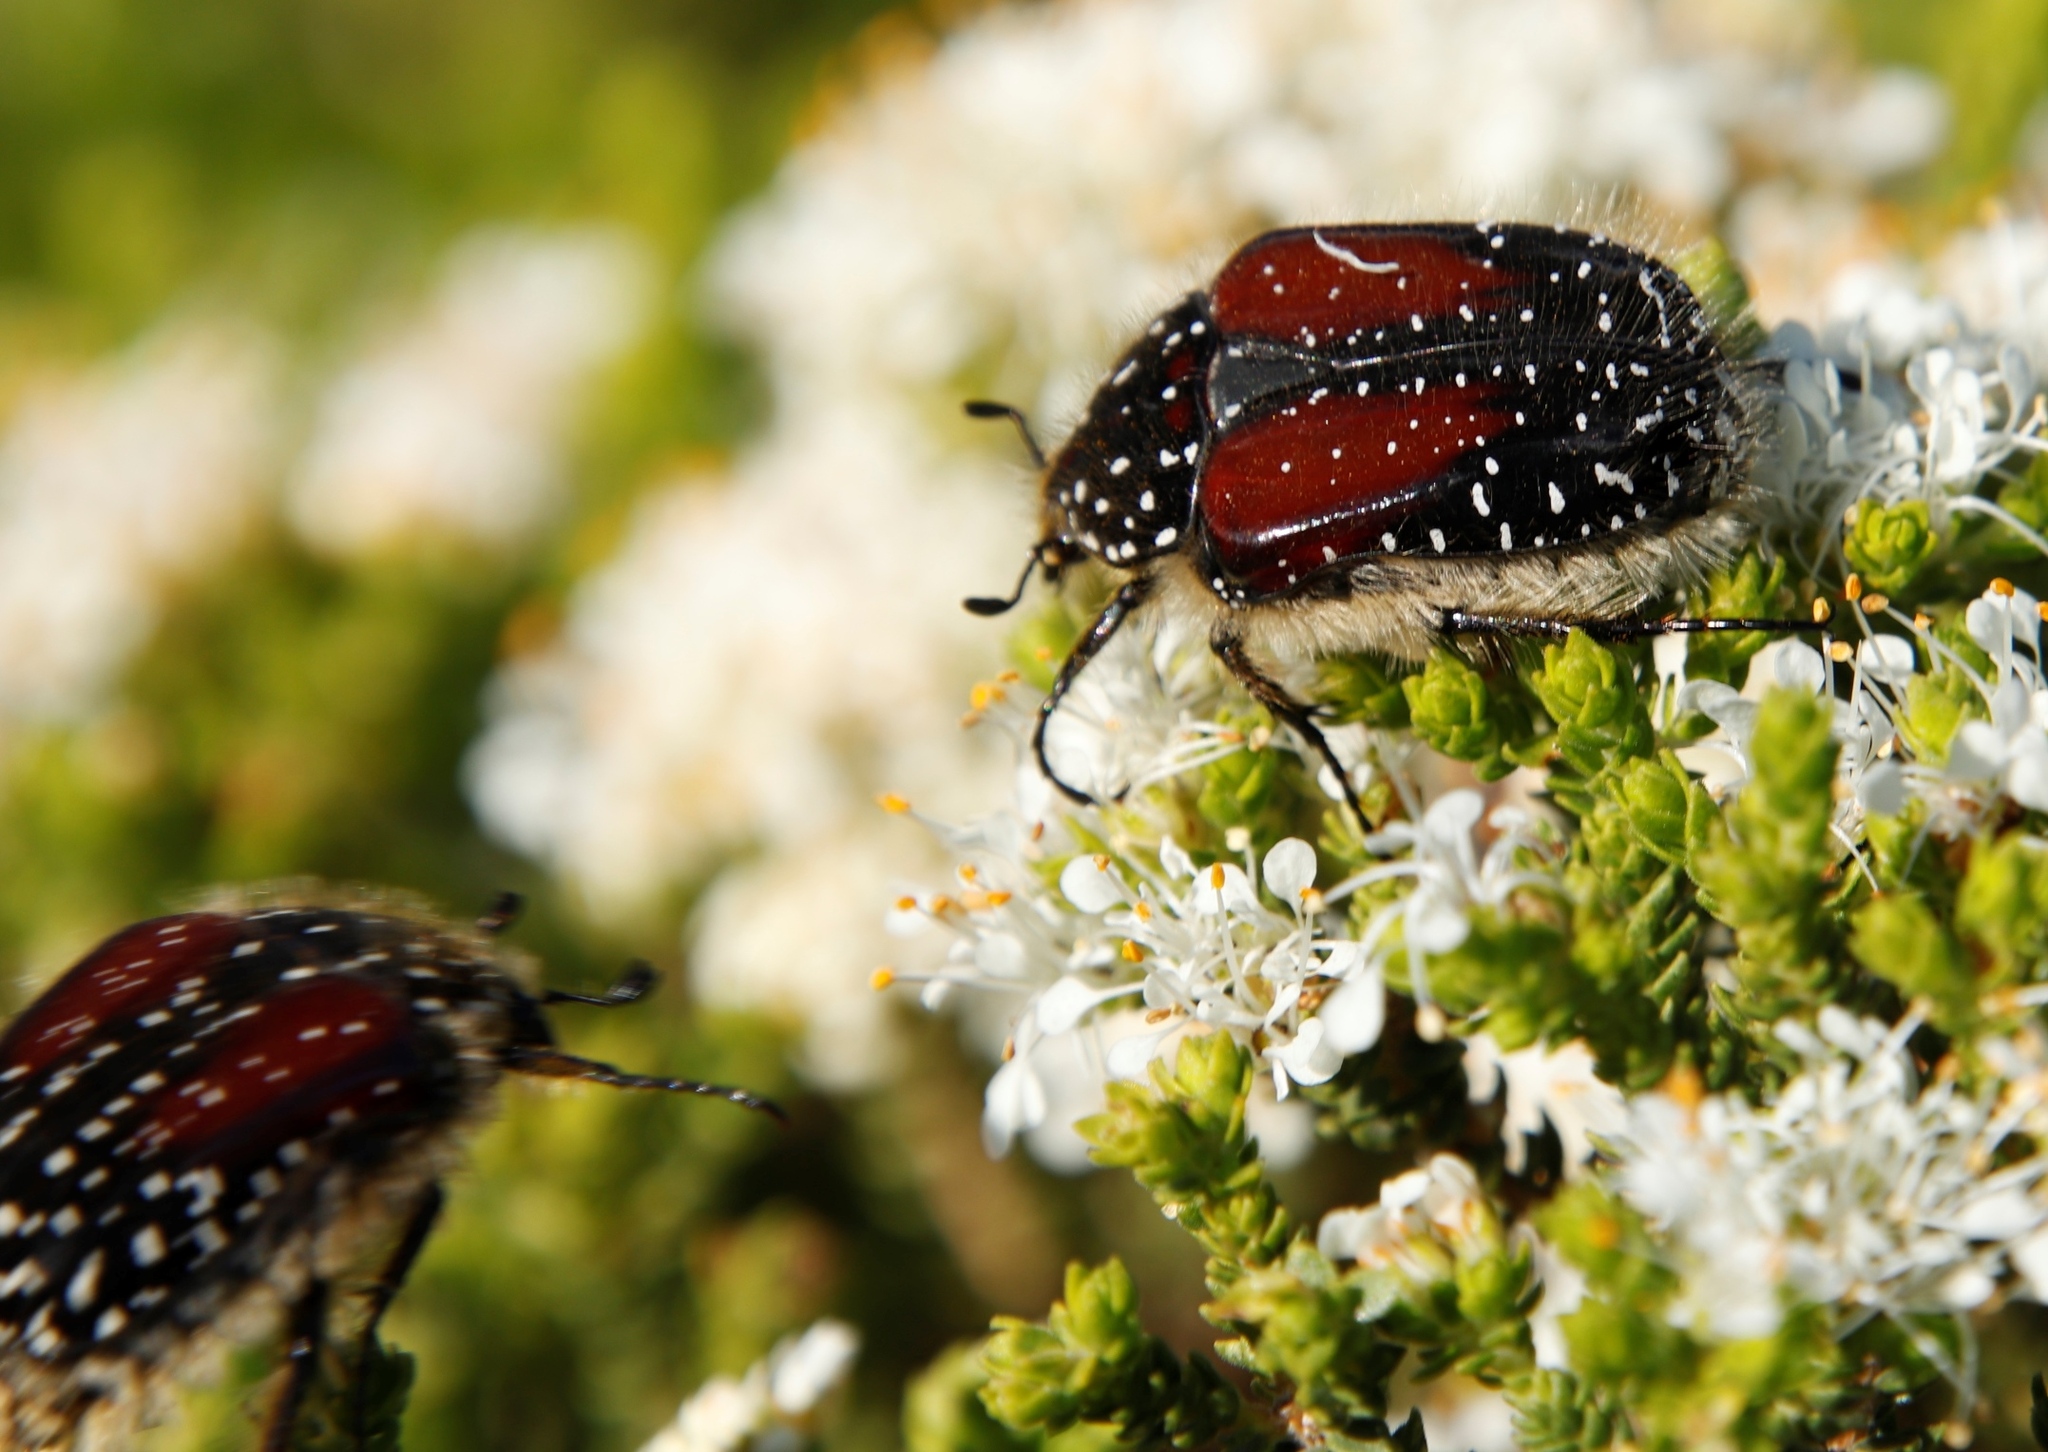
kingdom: Animalia
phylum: Arthropoda
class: Insecta
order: Coleoptera
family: Scarabaeidae
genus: Trichostetha
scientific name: Trichostetha bicolor
